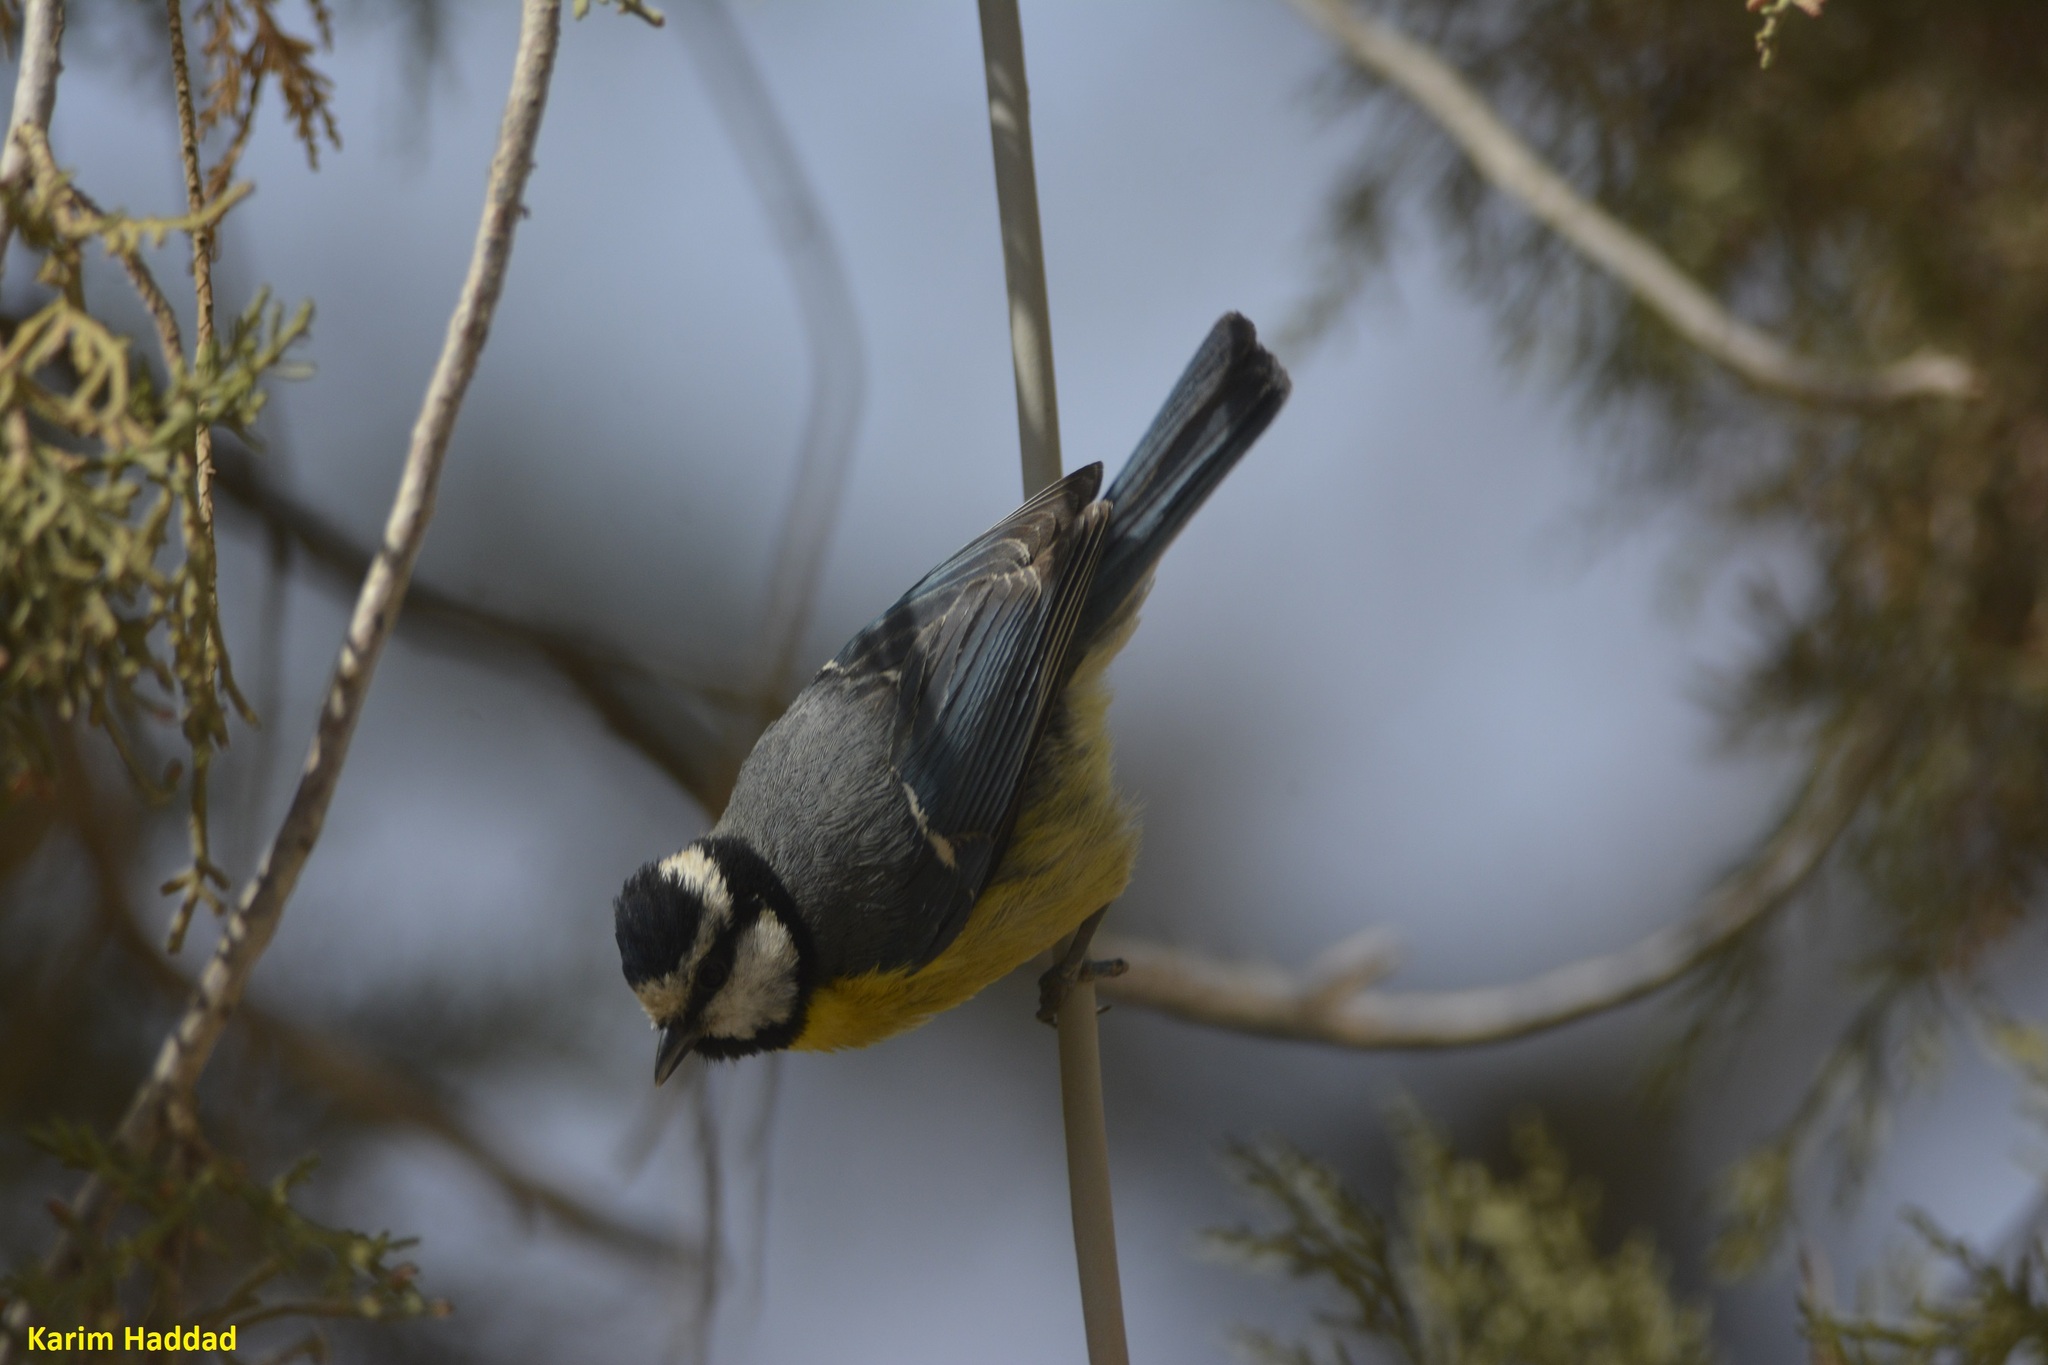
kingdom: Animalia
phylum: Chordata
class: Aves
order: Passeriformes
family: Paridae
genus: Cyanistes
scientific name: Cyanistes teneriffae
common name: African blue tit
